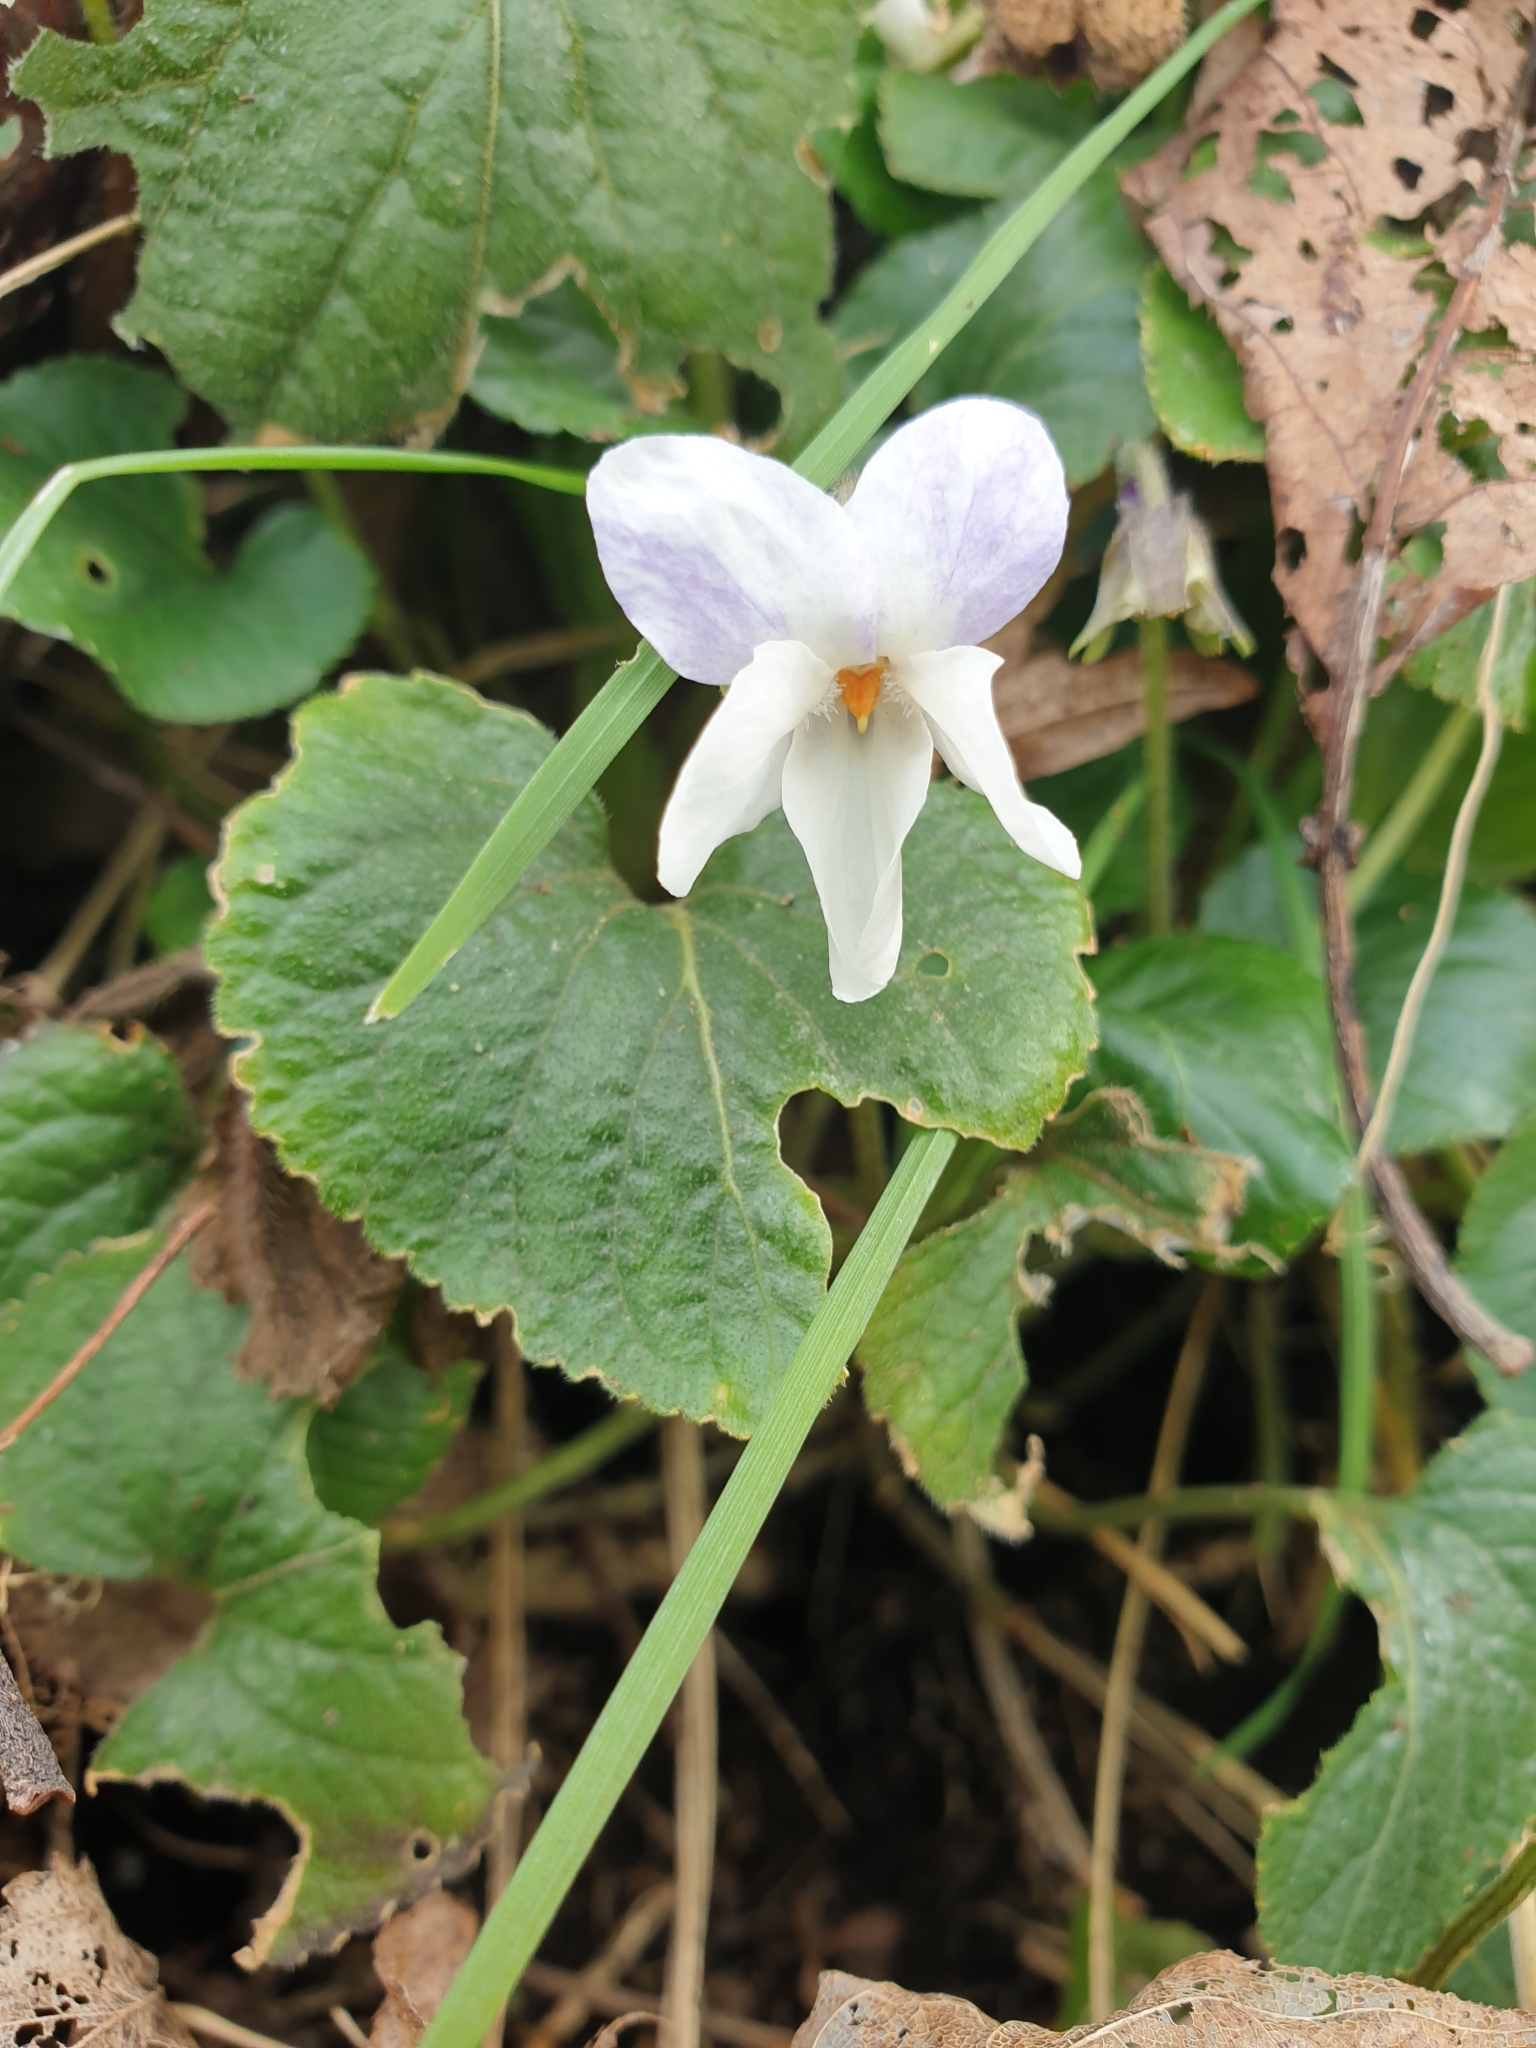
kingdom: Plantae
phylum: Tracheophyta
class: Magnoliopsida
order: Malpighiales
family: Violaceae
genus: Viola
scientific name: Viola odorata
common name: Sweet violet
